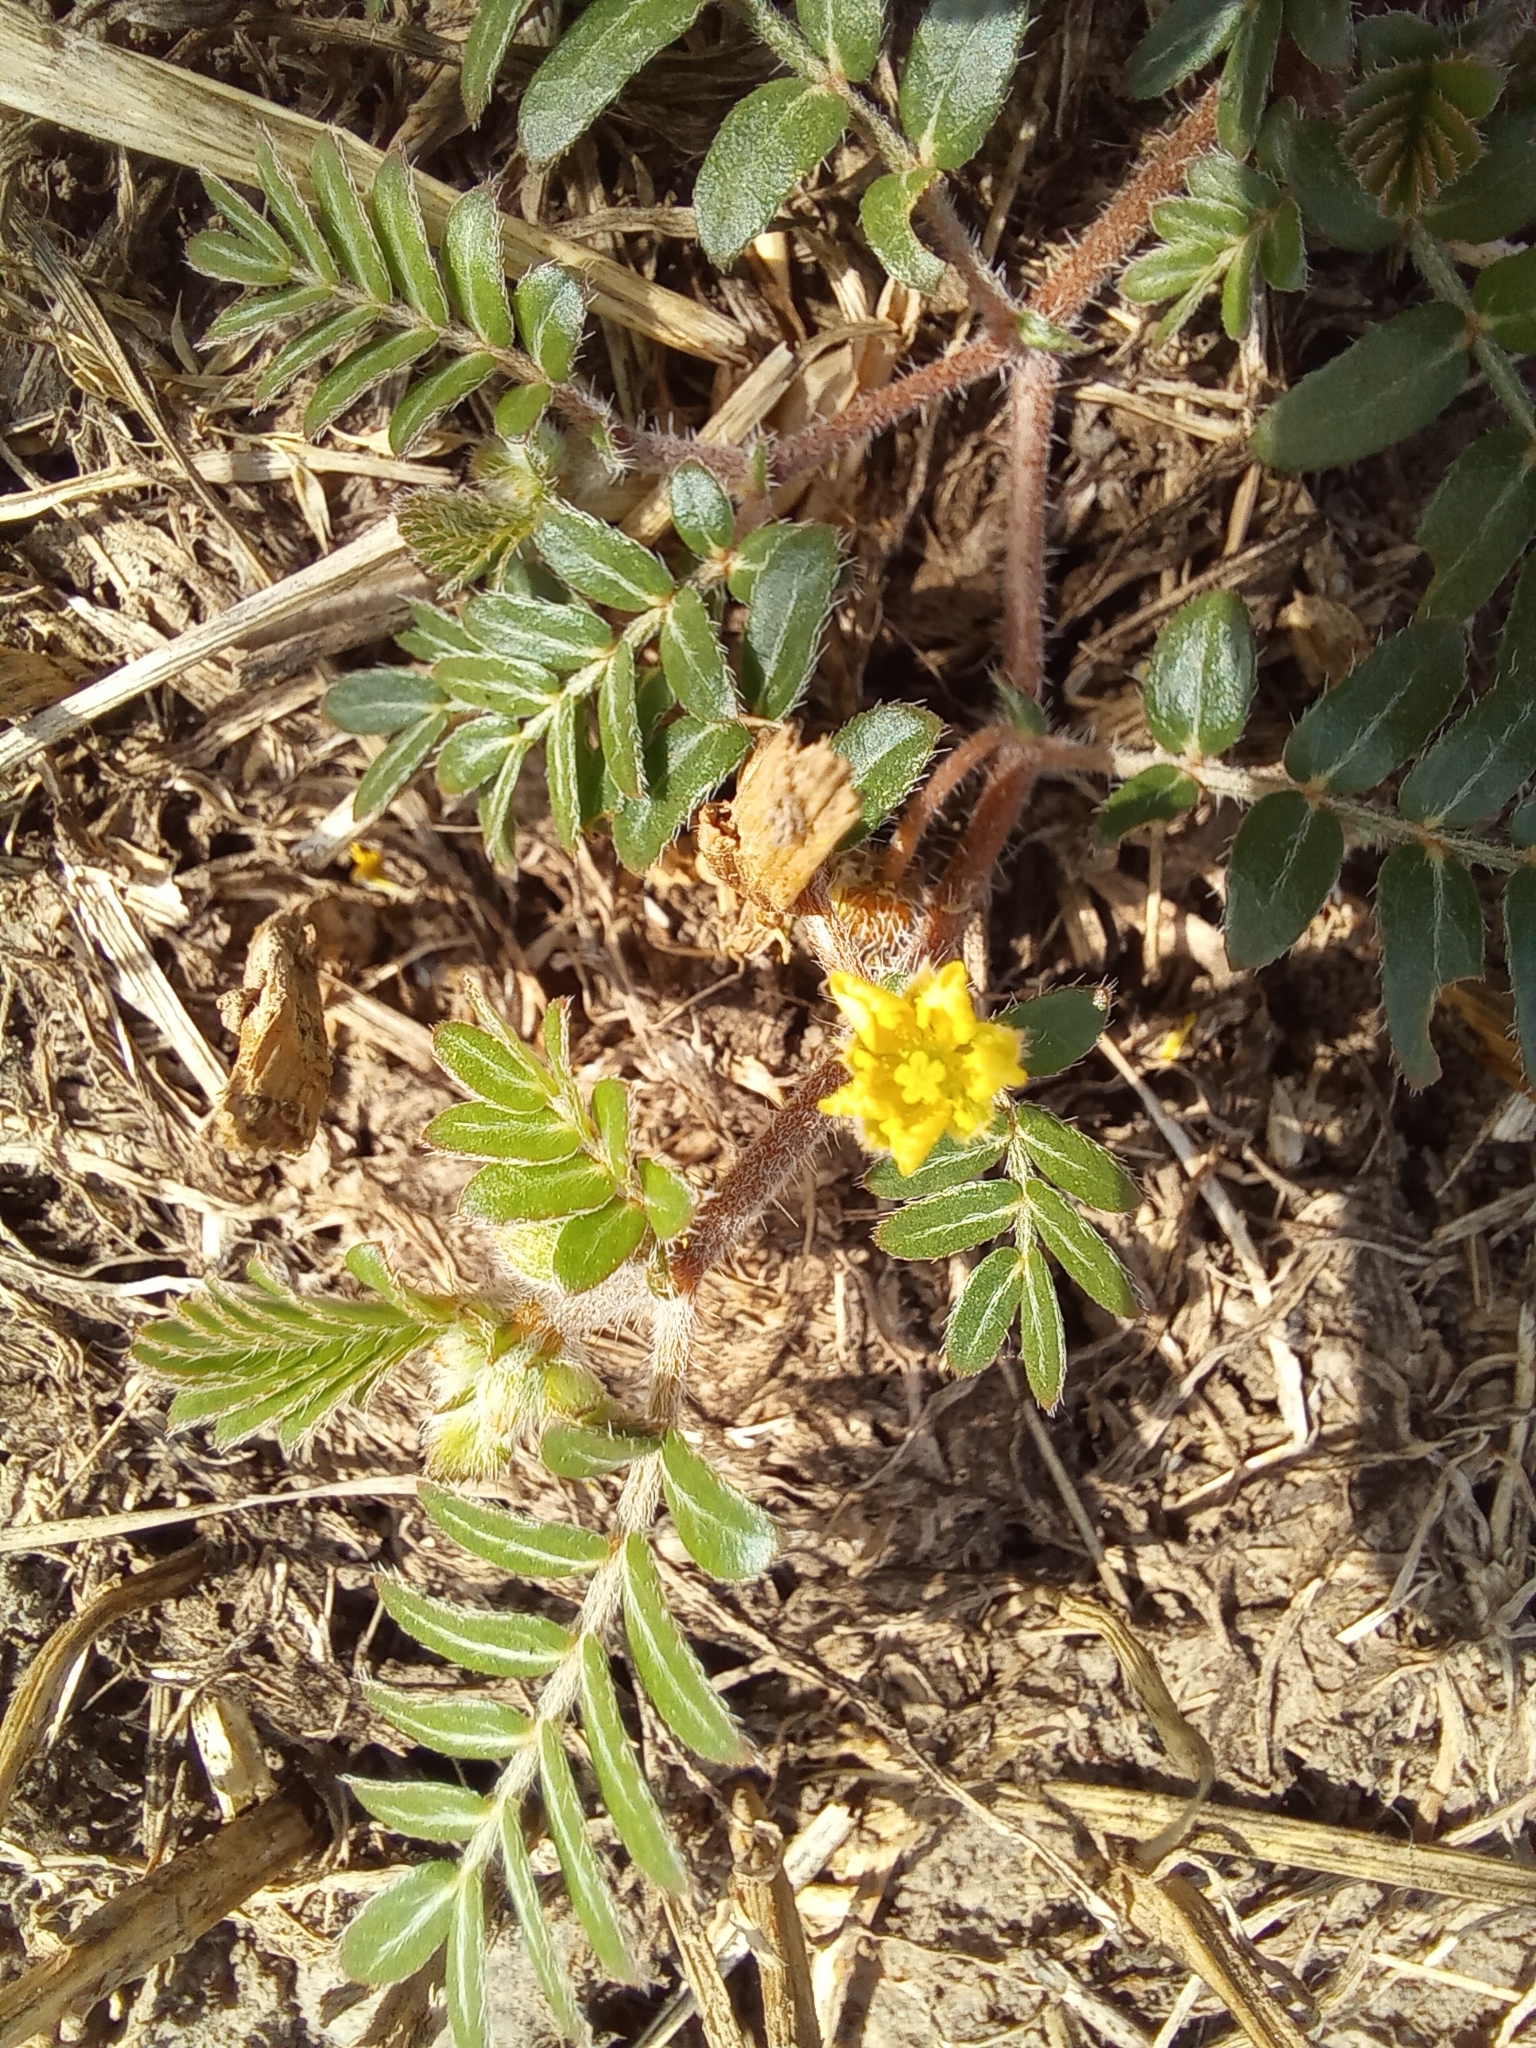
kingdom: Plantae
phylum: Tracheophyta
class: Magnoliopsida
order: Zygophyllales
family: Zygophyllaceae
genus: Tribulus
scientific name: Tribulus terrestris
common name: Puncturevine
